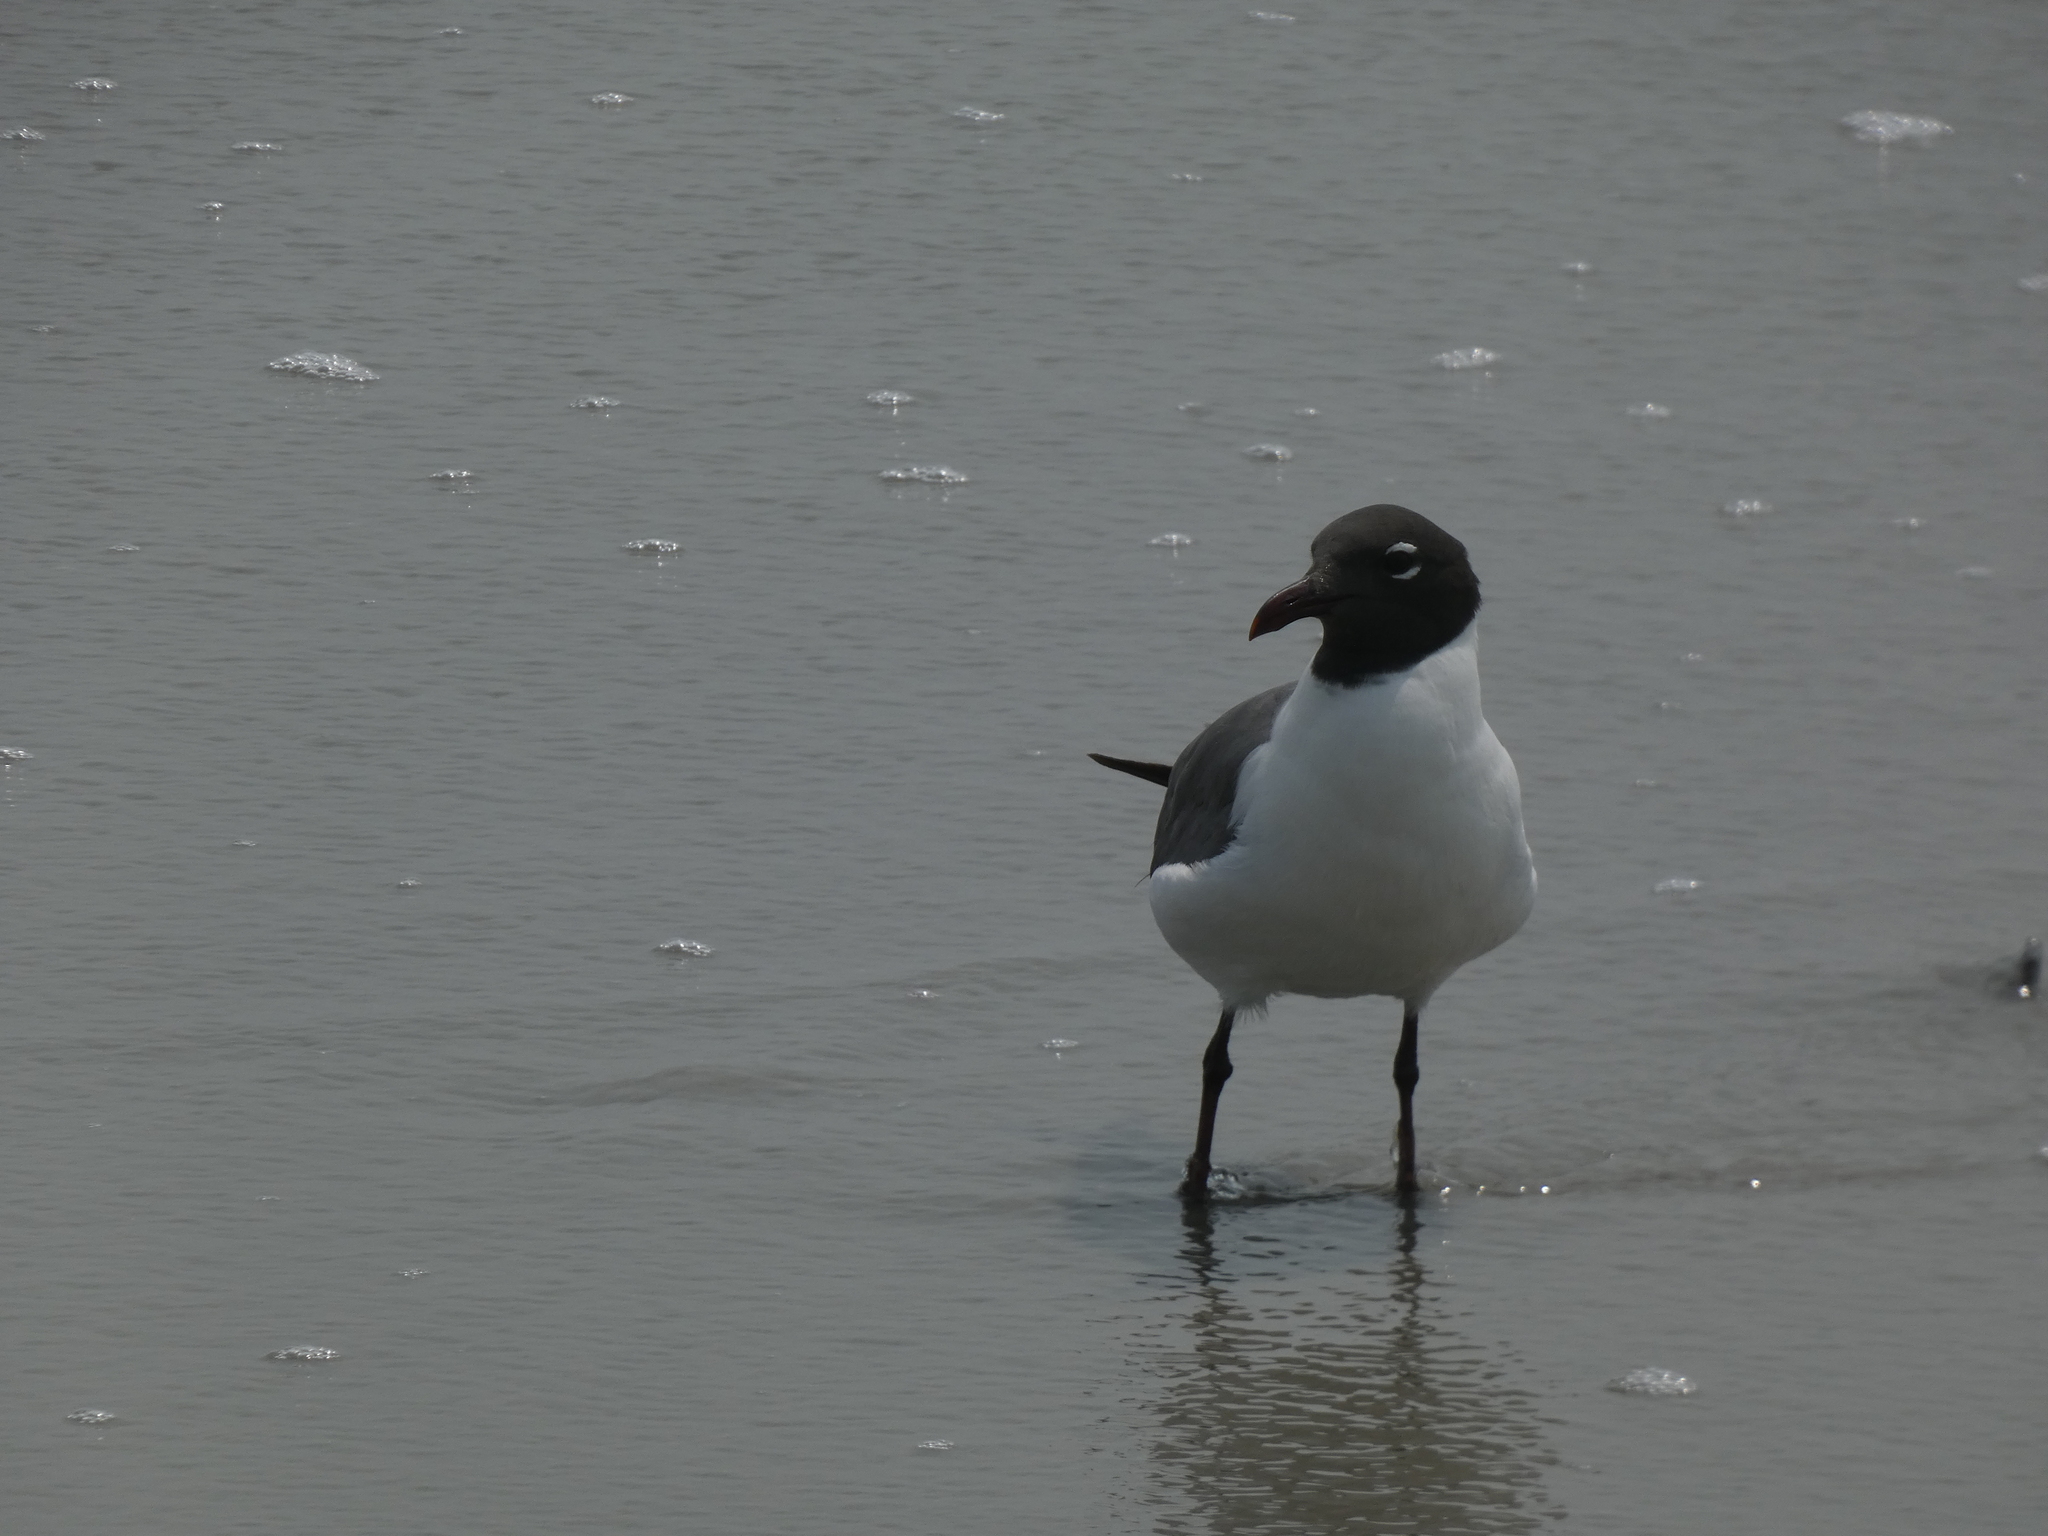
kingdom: Animalia
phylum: Chordata
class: Aves
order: Charadriiformes
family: Laridae
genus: Leucophaeus
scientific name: Leucophaeus atricilla
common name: Laughing gull
